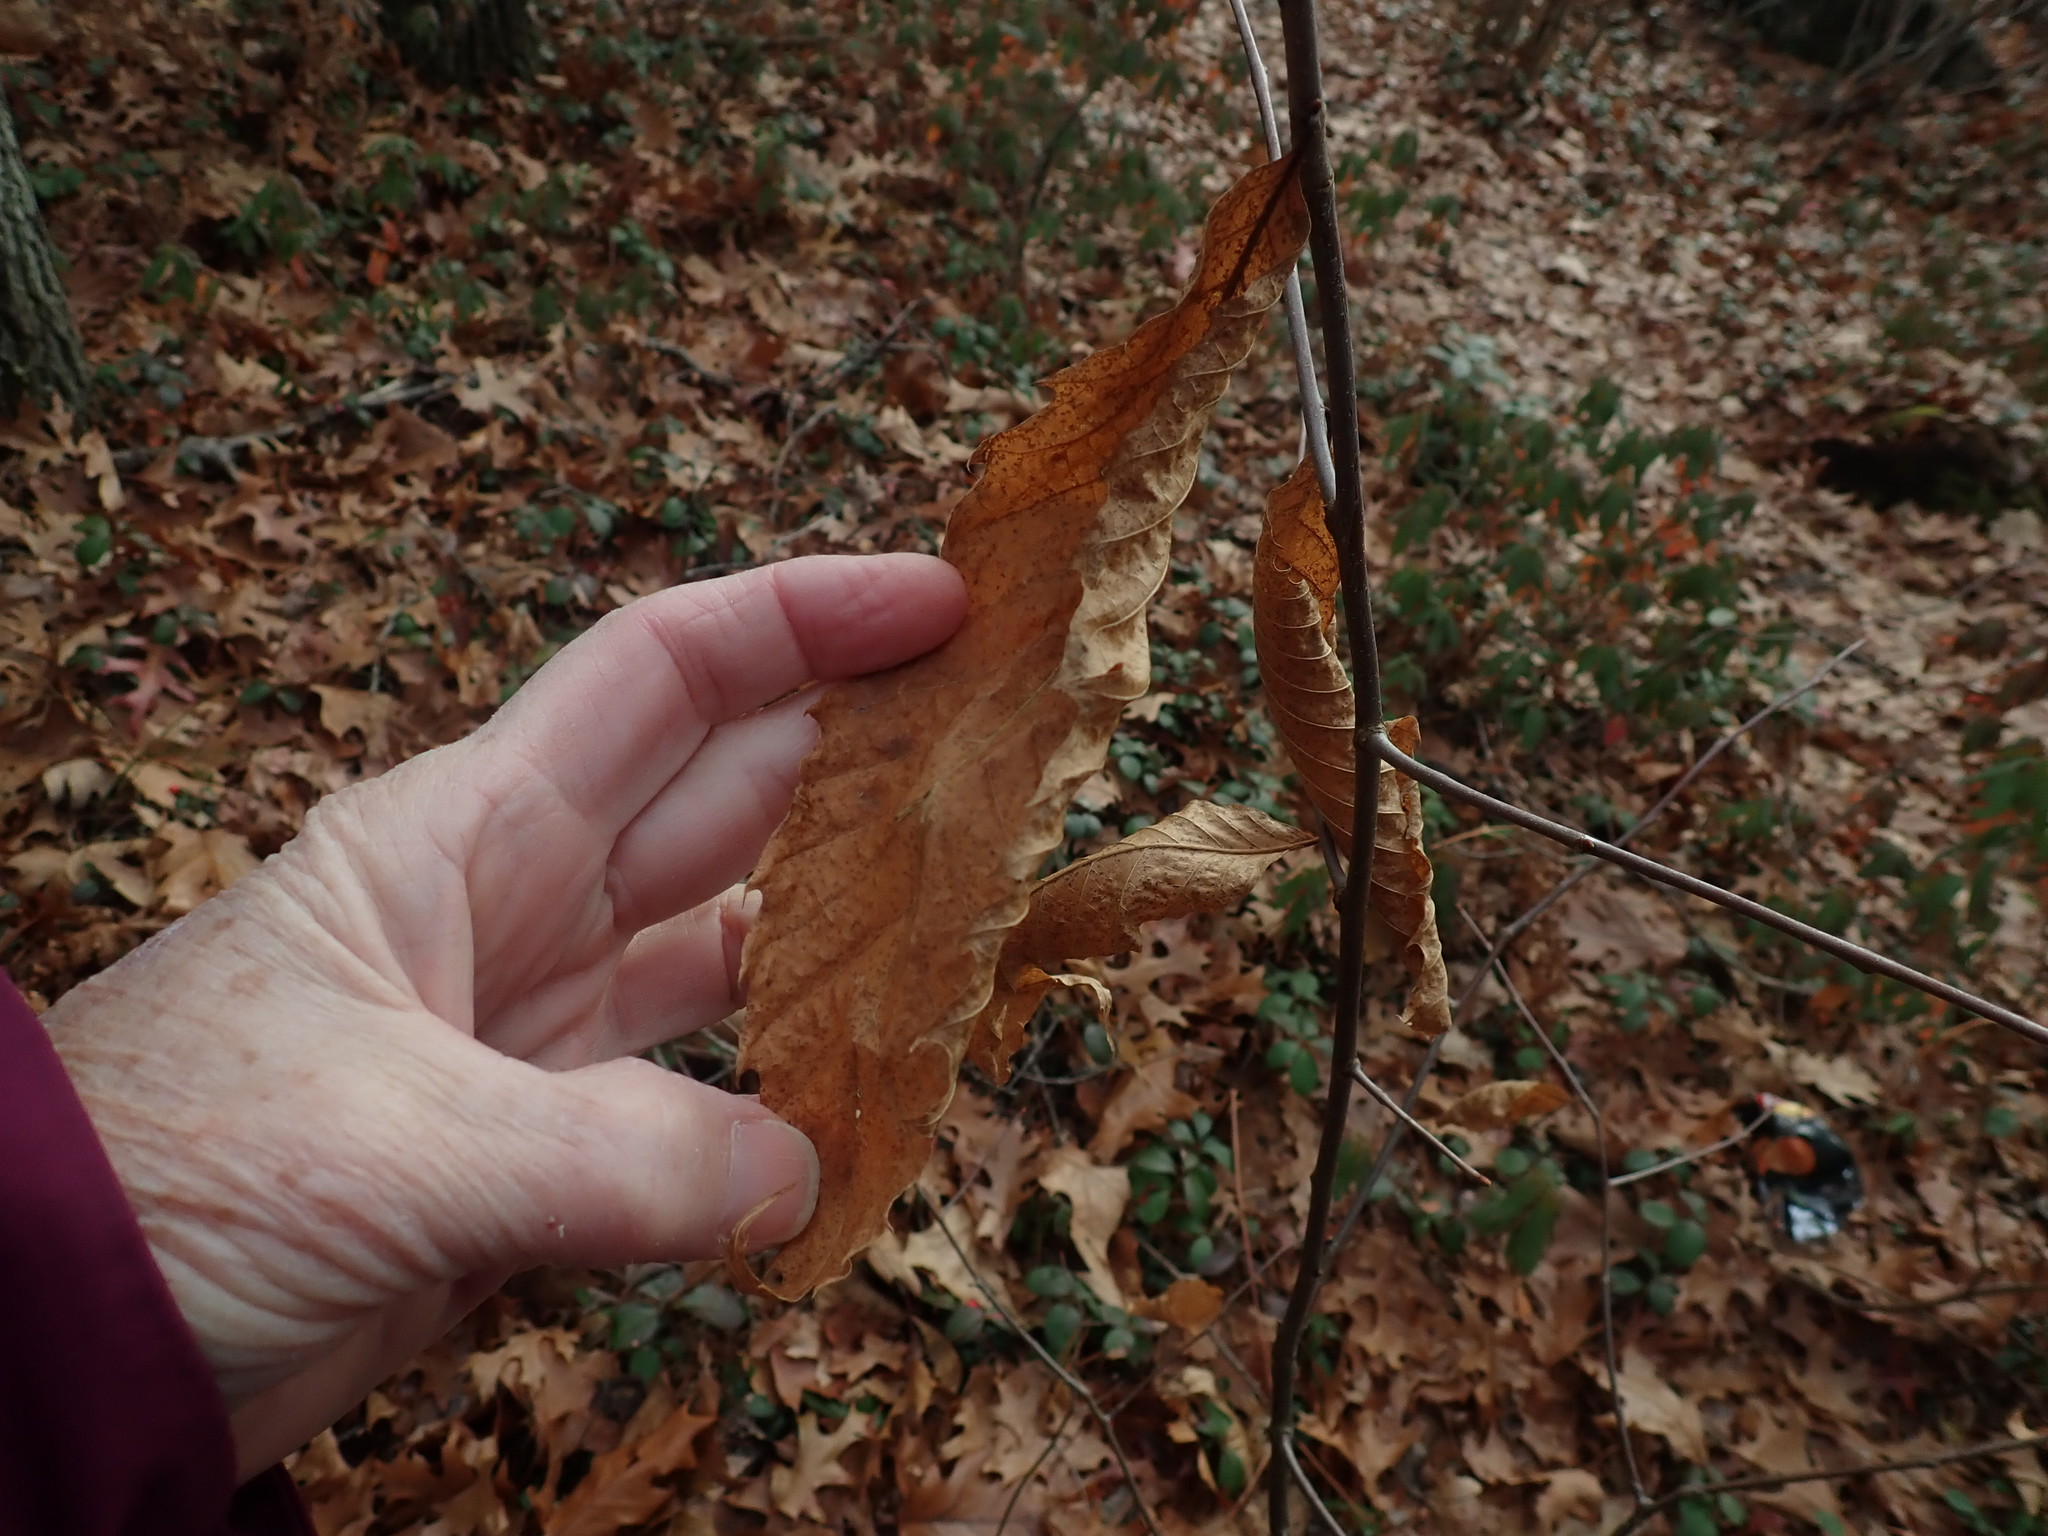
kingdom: Plantae
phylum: Tracheophyta
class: Magnoliopsida
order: Fagales
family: Fagaceae
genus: Castanea
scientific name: Castanea dentata
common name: American chestnut
